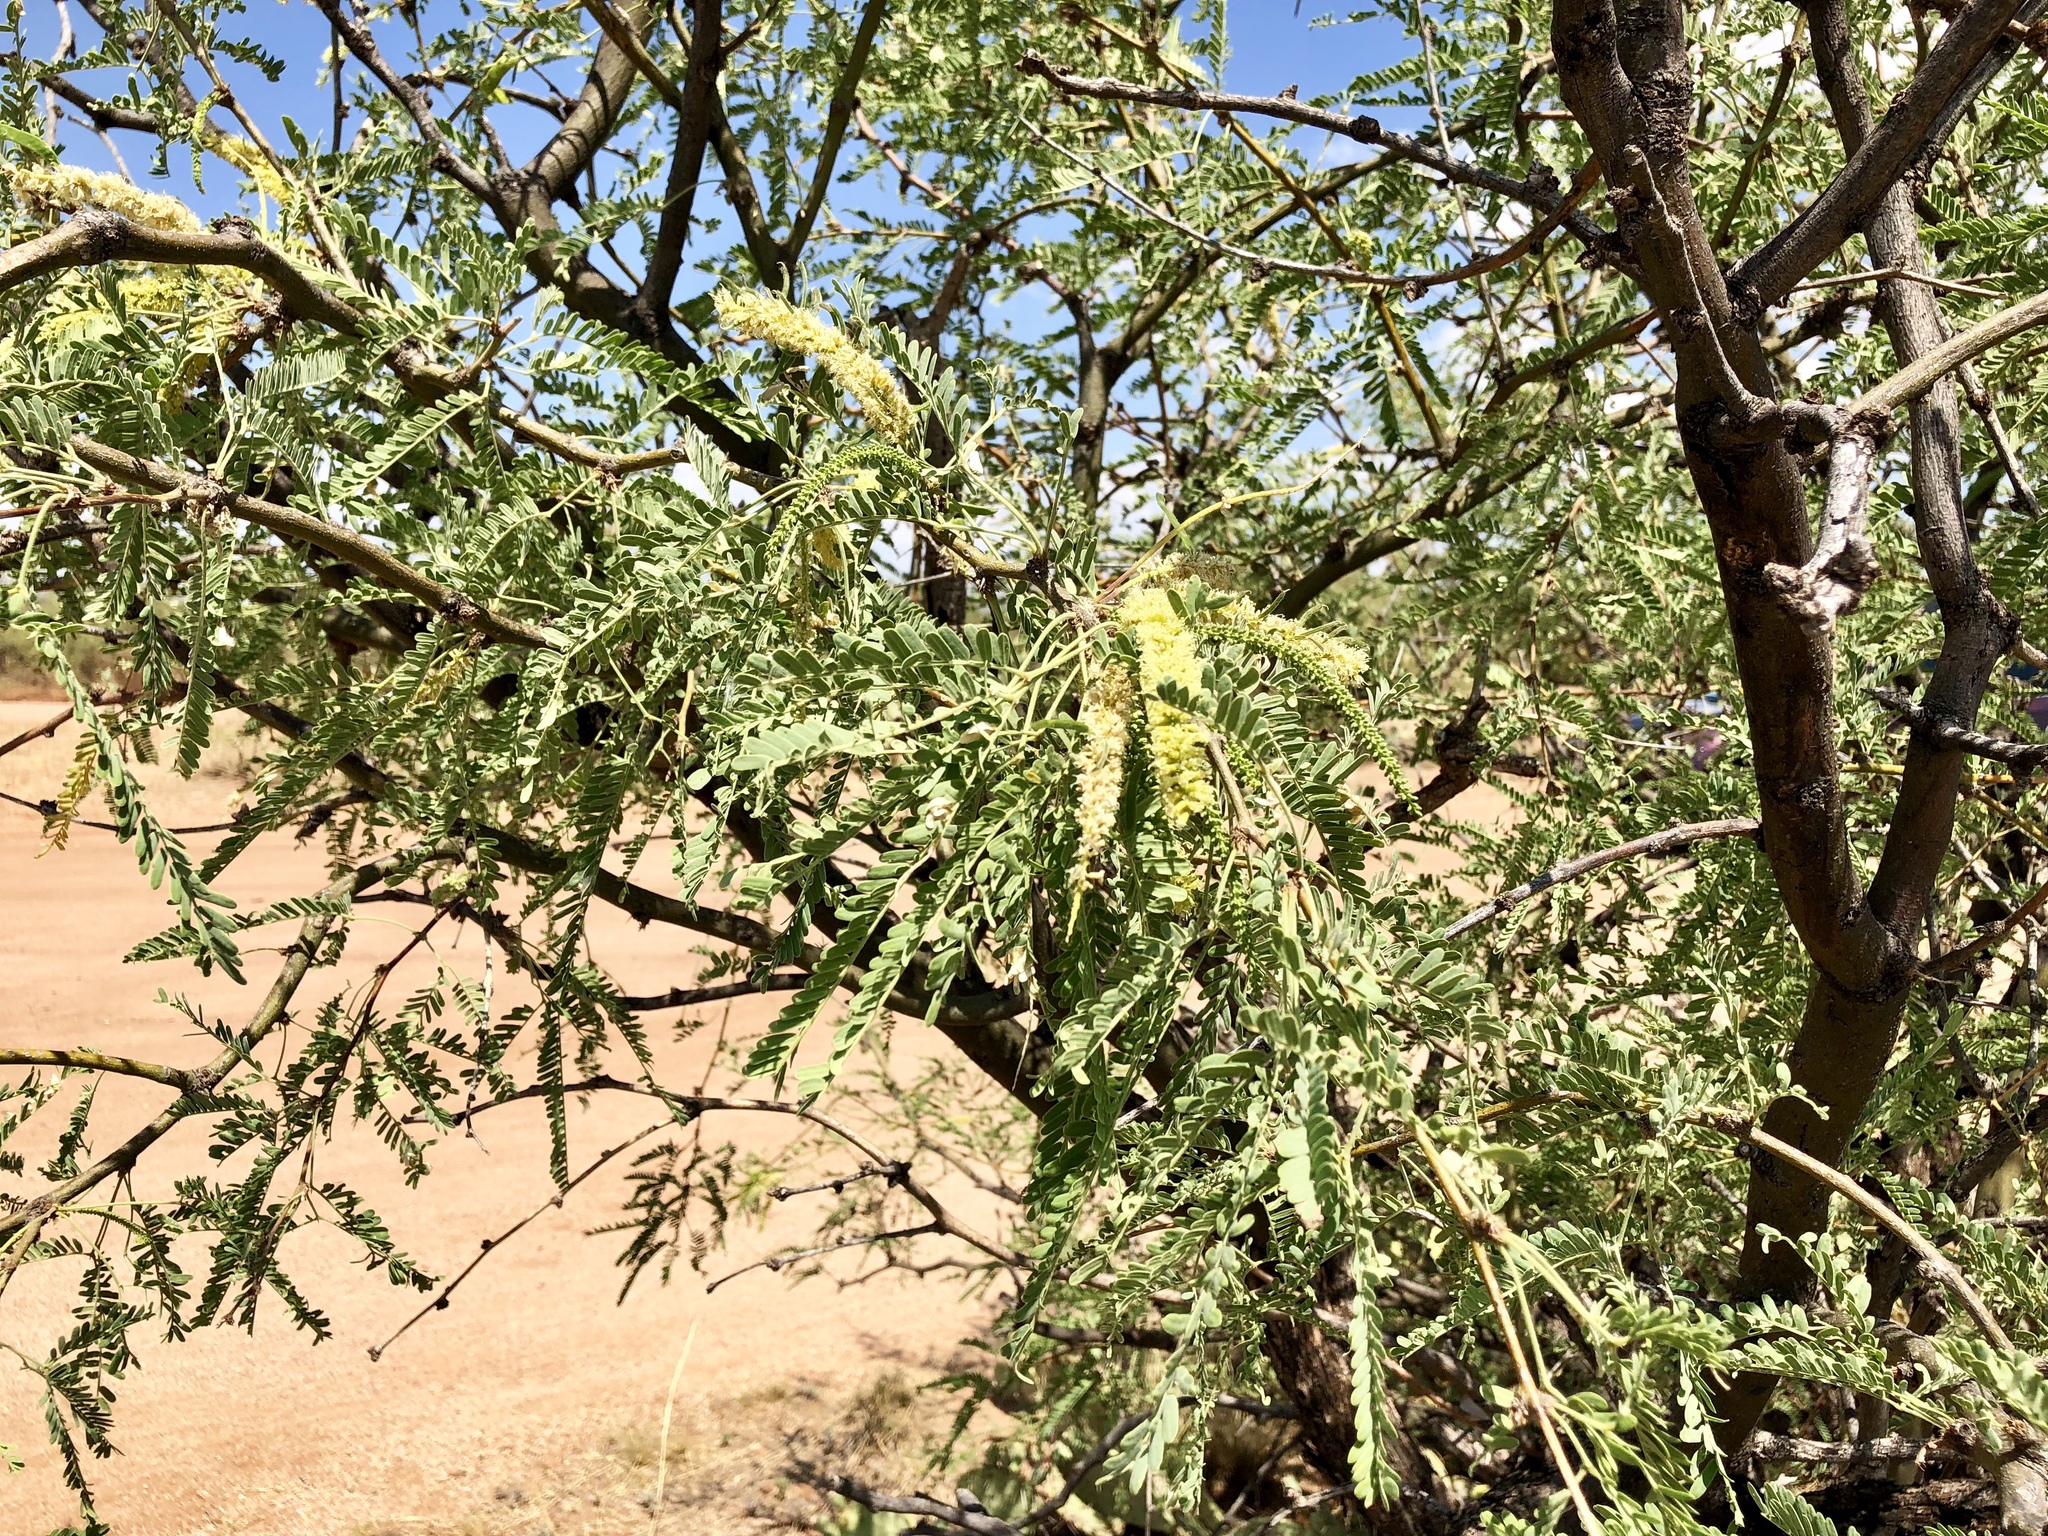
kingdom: Plantae
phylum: Tracheophyta
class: Magnoliopsida
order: Fabales
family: Fabaceae
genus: Prosopis
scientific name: Prosopis velutina
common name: Velvet mesquite
